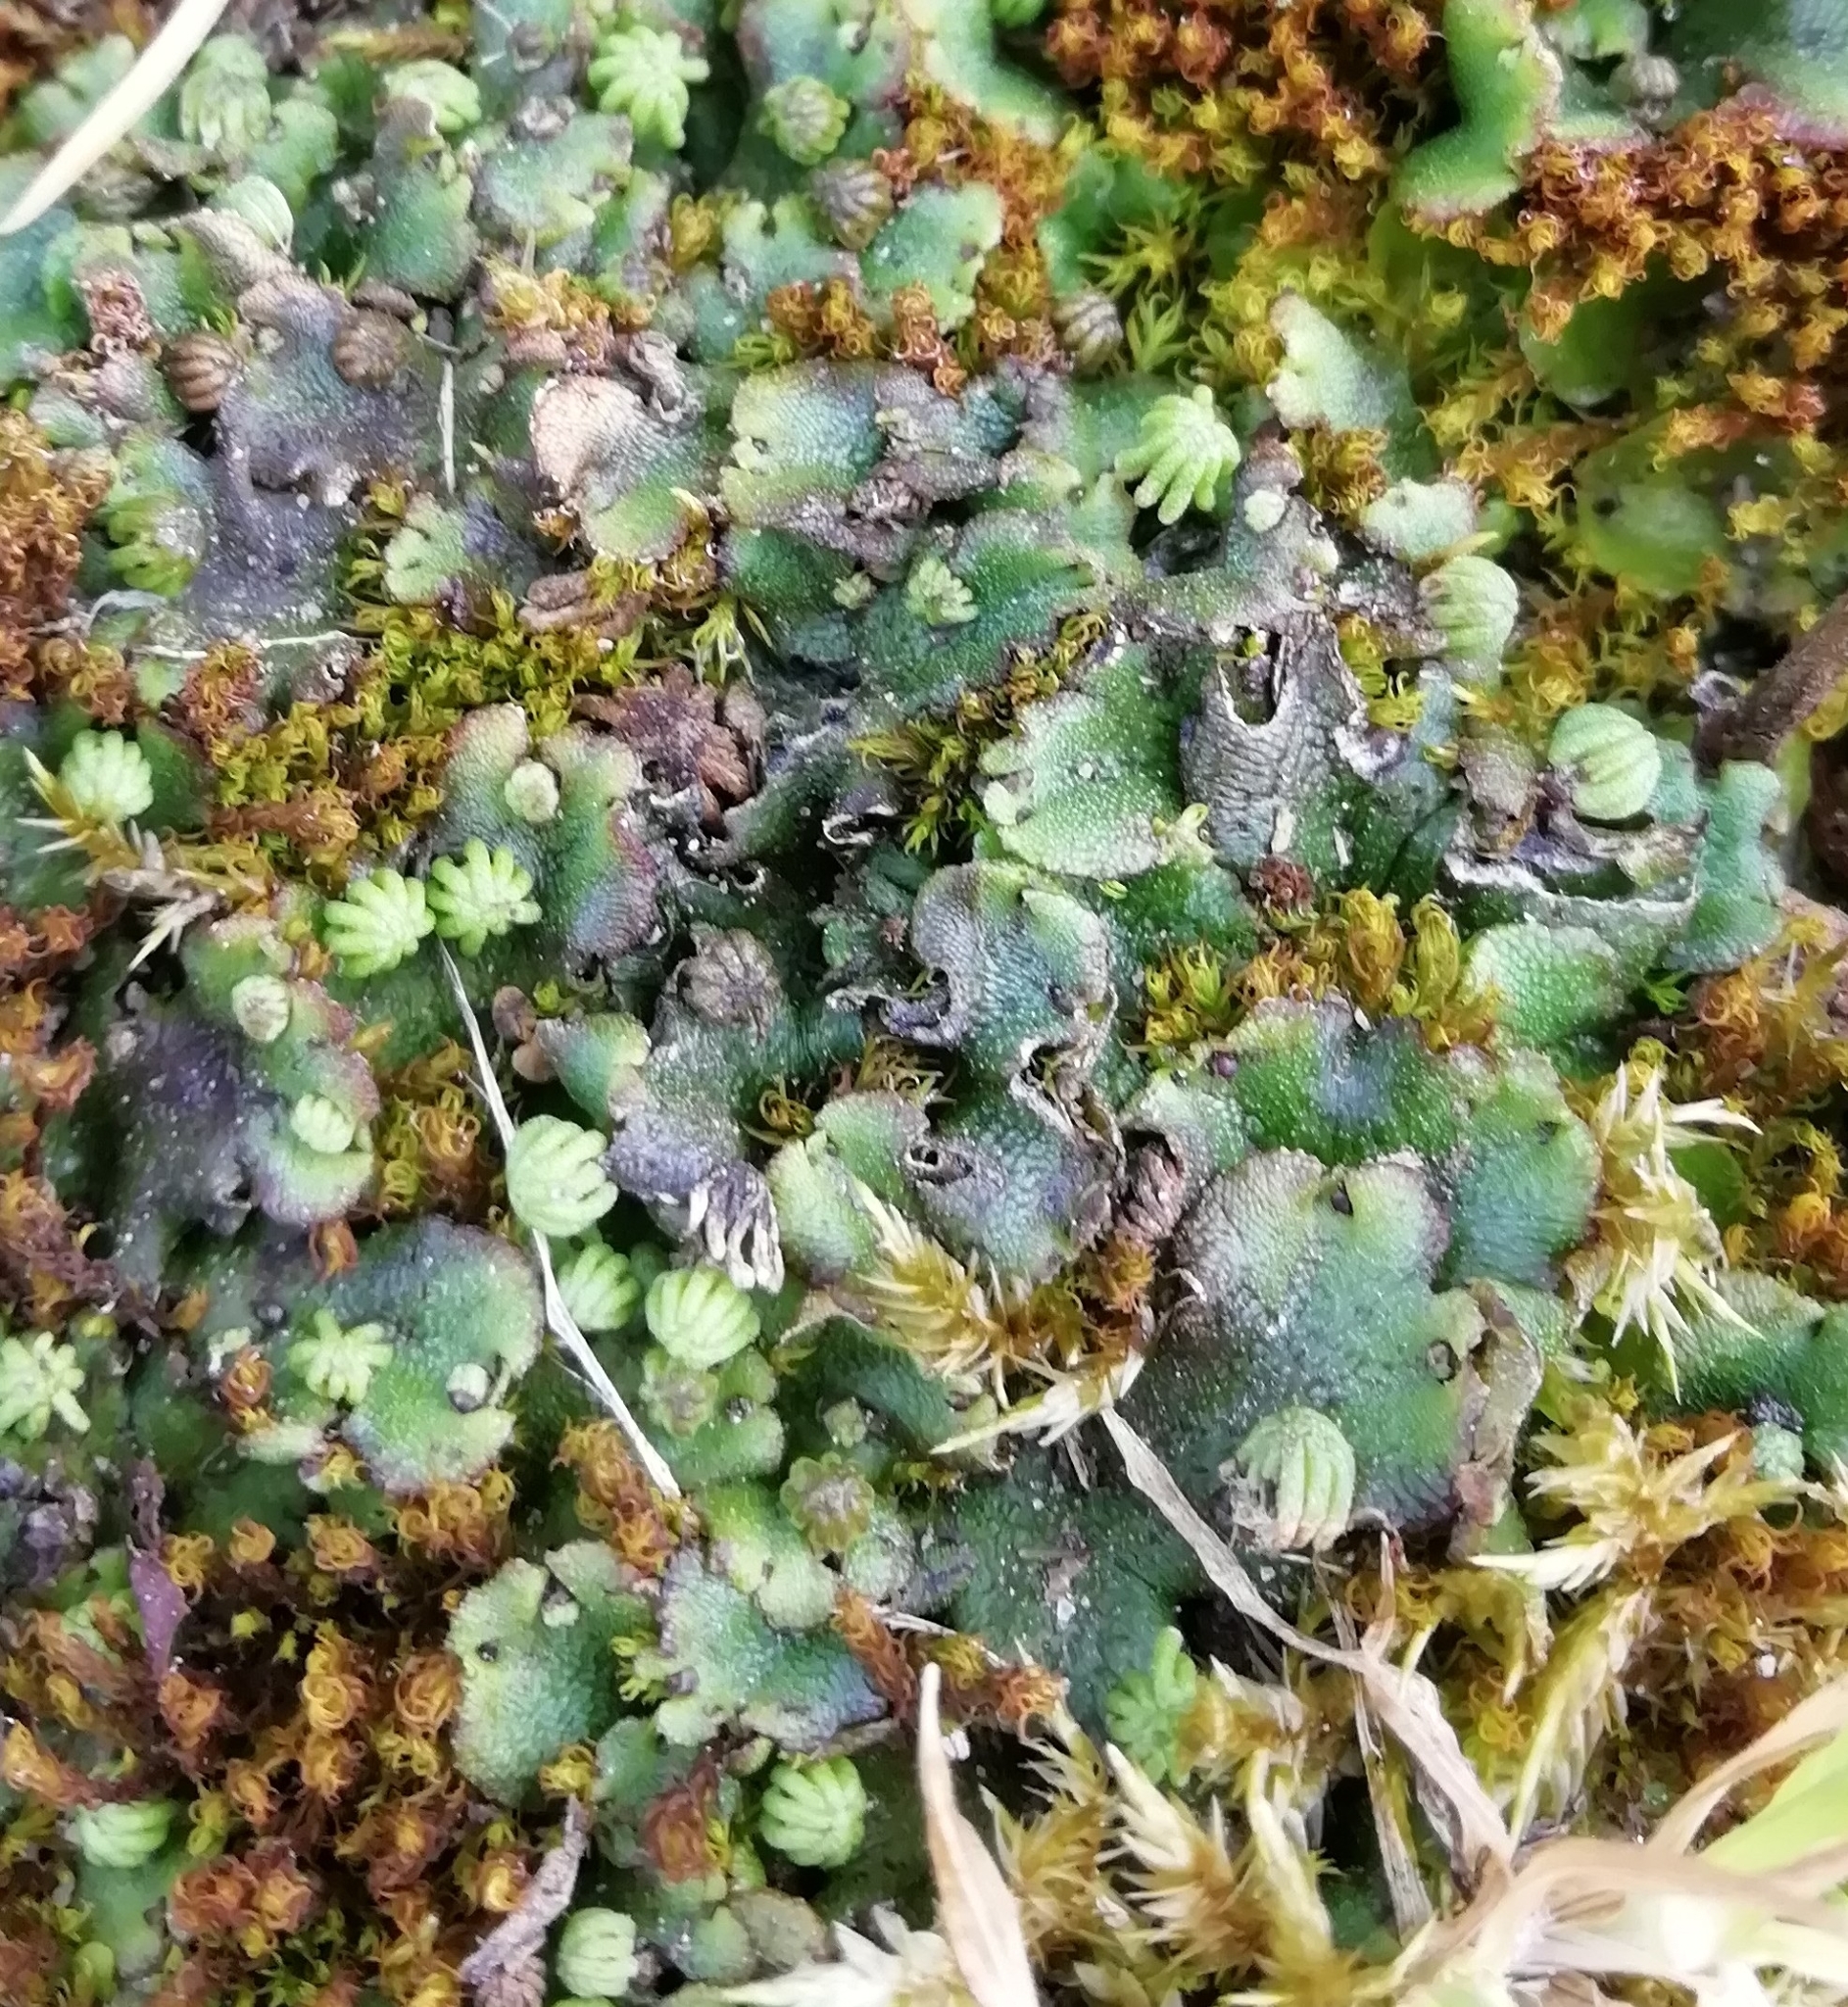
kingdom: Plantae
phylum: Marchantiophyta
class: Marchantiopsida
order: Marchantiales
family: Marchantiaceae
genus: Marchantia
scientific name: Marchantia polymorpha
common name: Common liverwort
